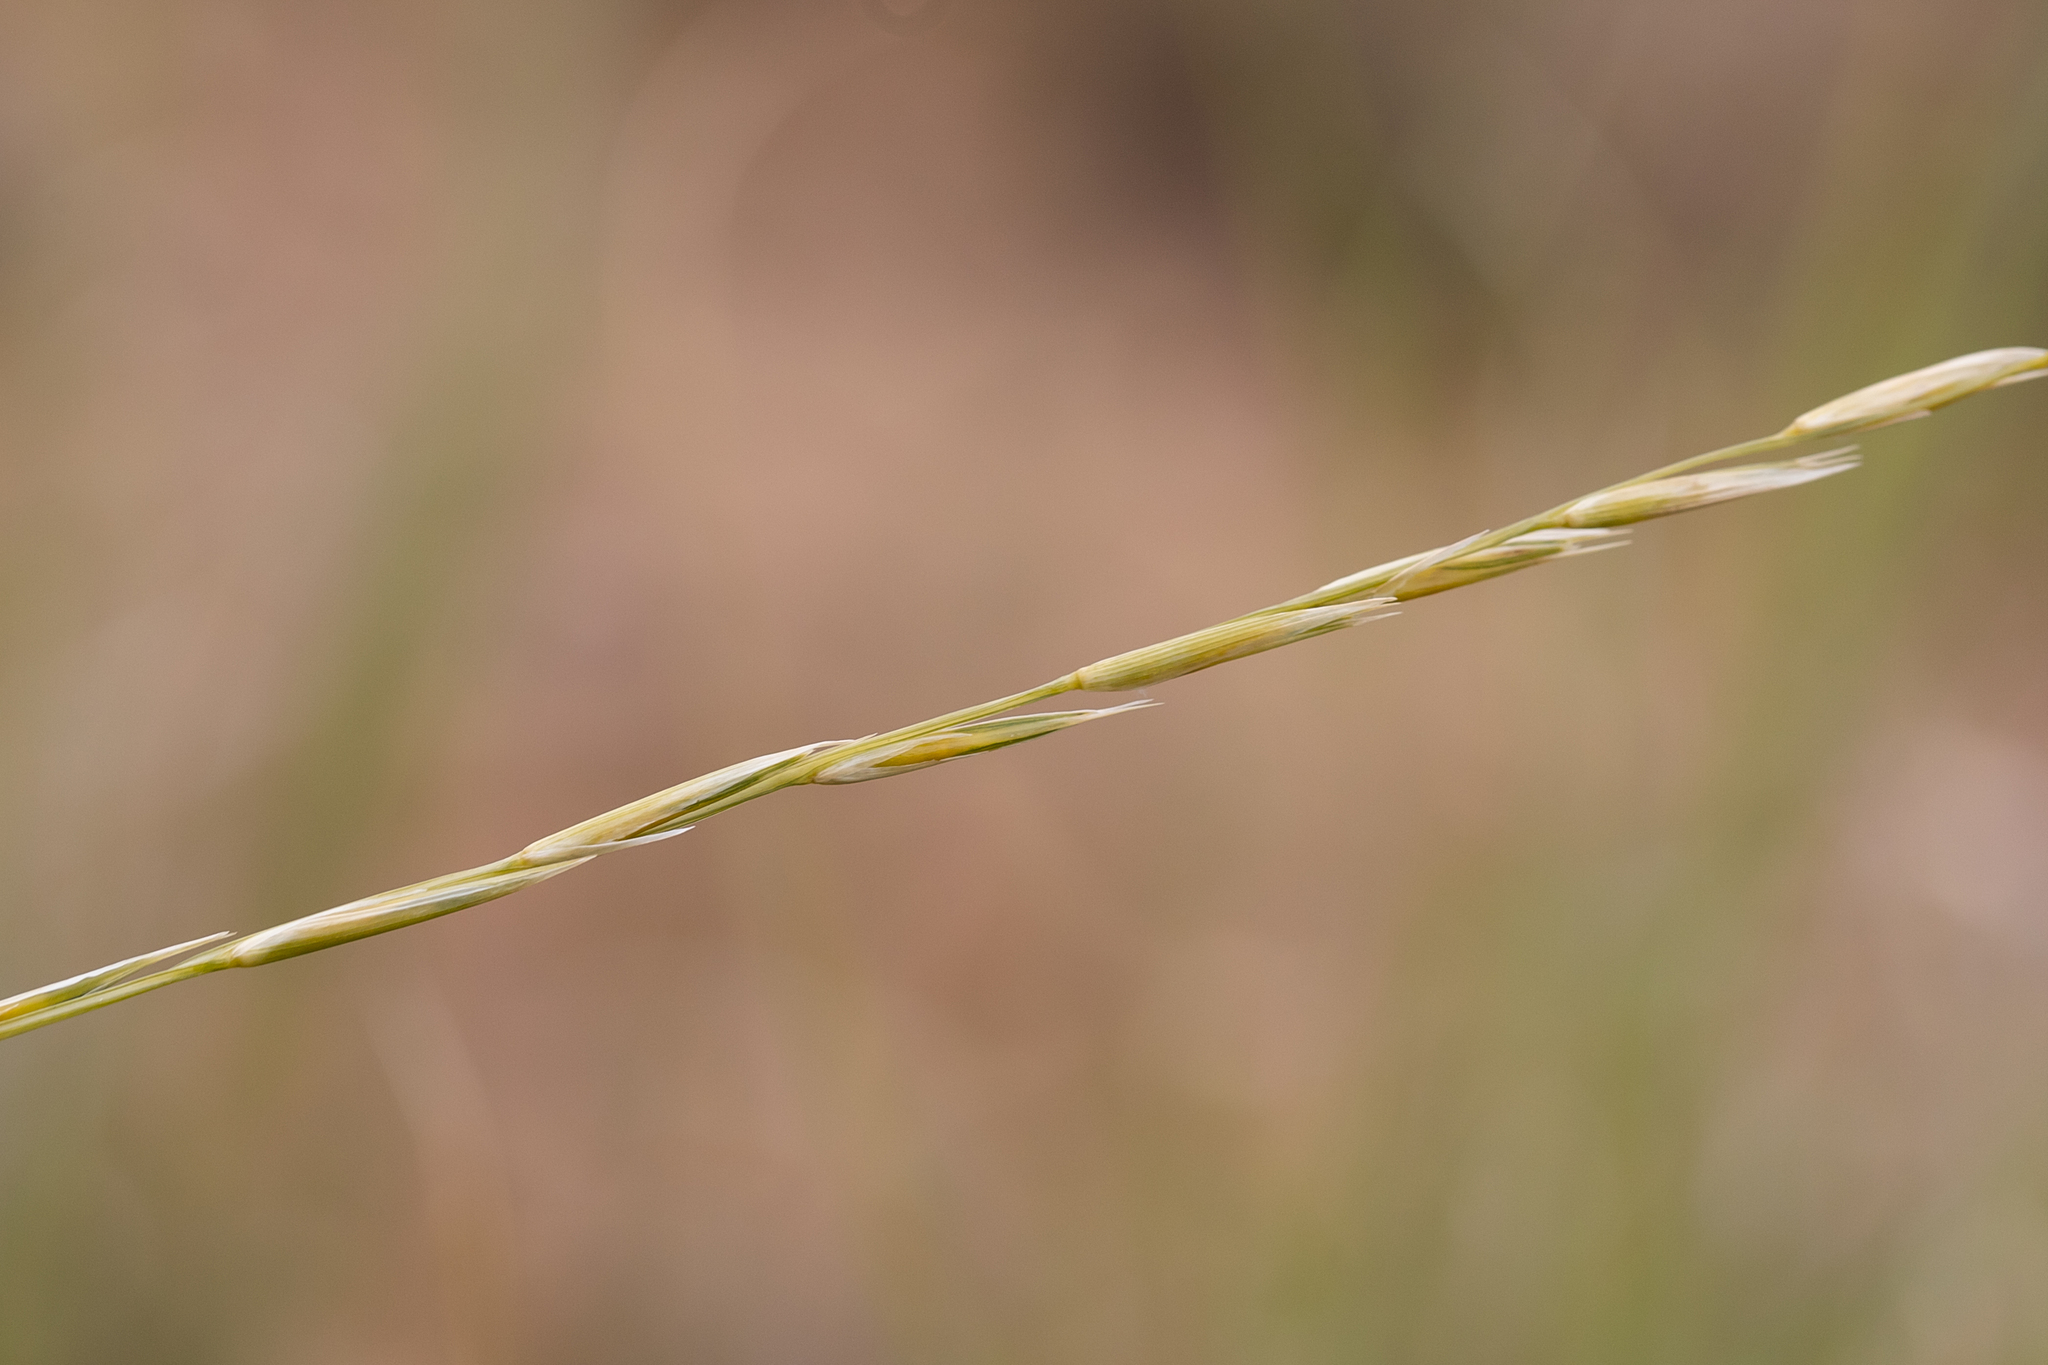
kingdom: Plantae
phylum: Tracheophyta
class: Liliopsida
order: Poales
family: Poaceae
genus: Astrebla
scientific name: Astrebla elymoides
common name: Hoop mitchell grass
